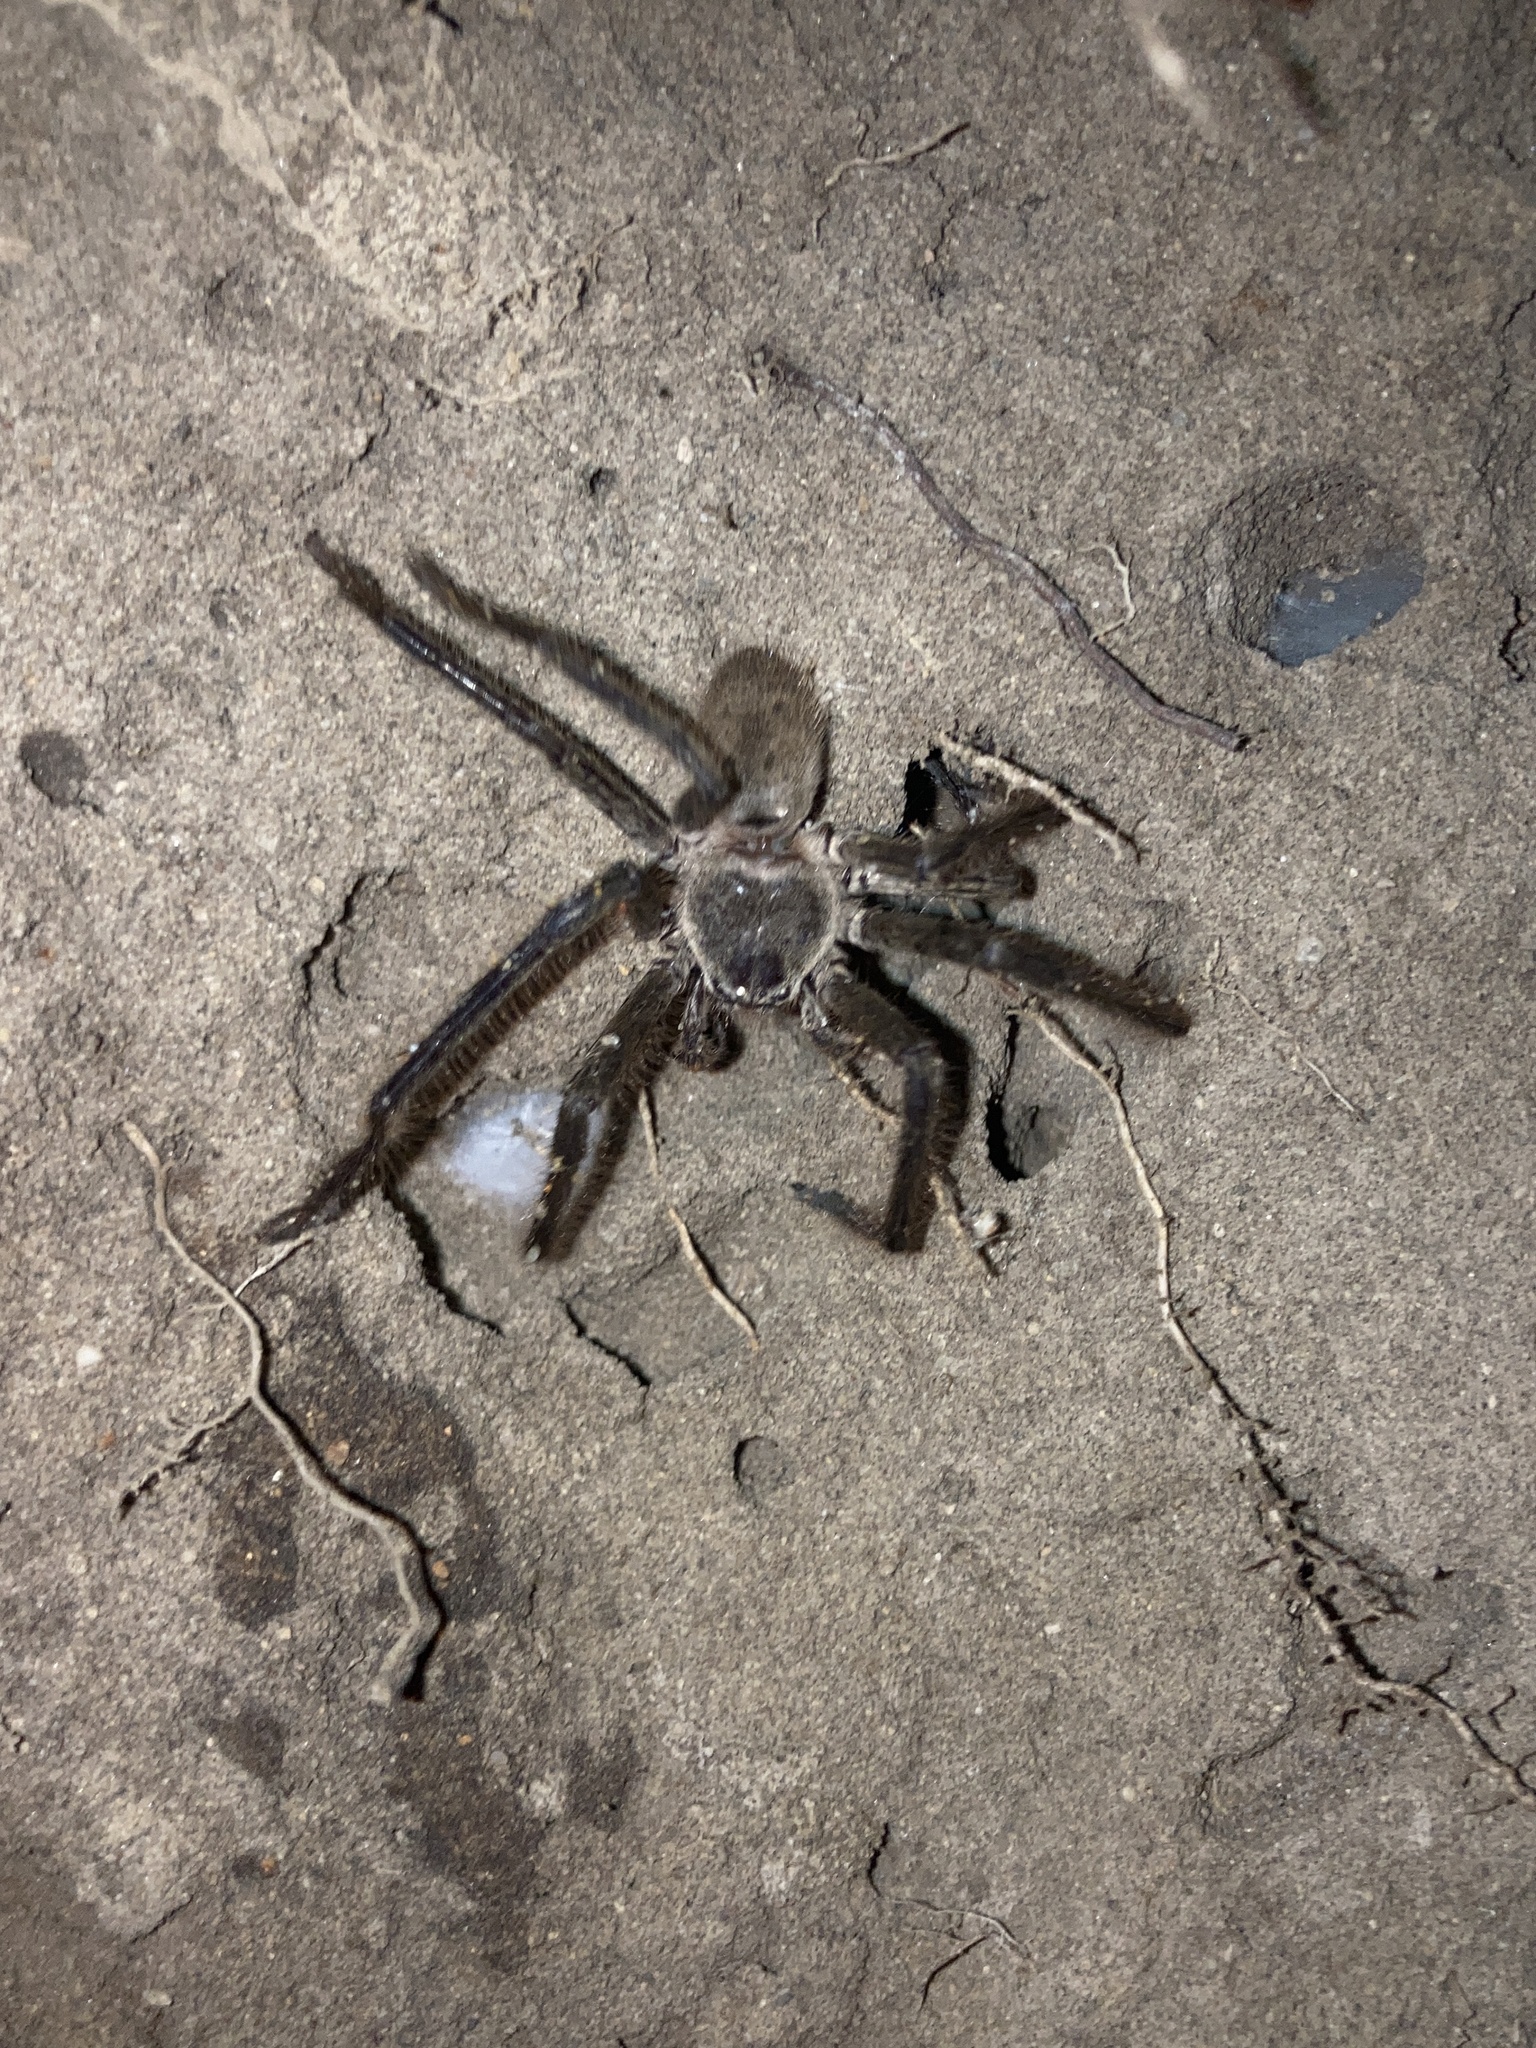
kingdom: Animalia
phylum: Arthropoda
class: Arachnida
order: Araneae
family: Sparassidae
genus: Isopeda
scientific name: Isopeda villosa
